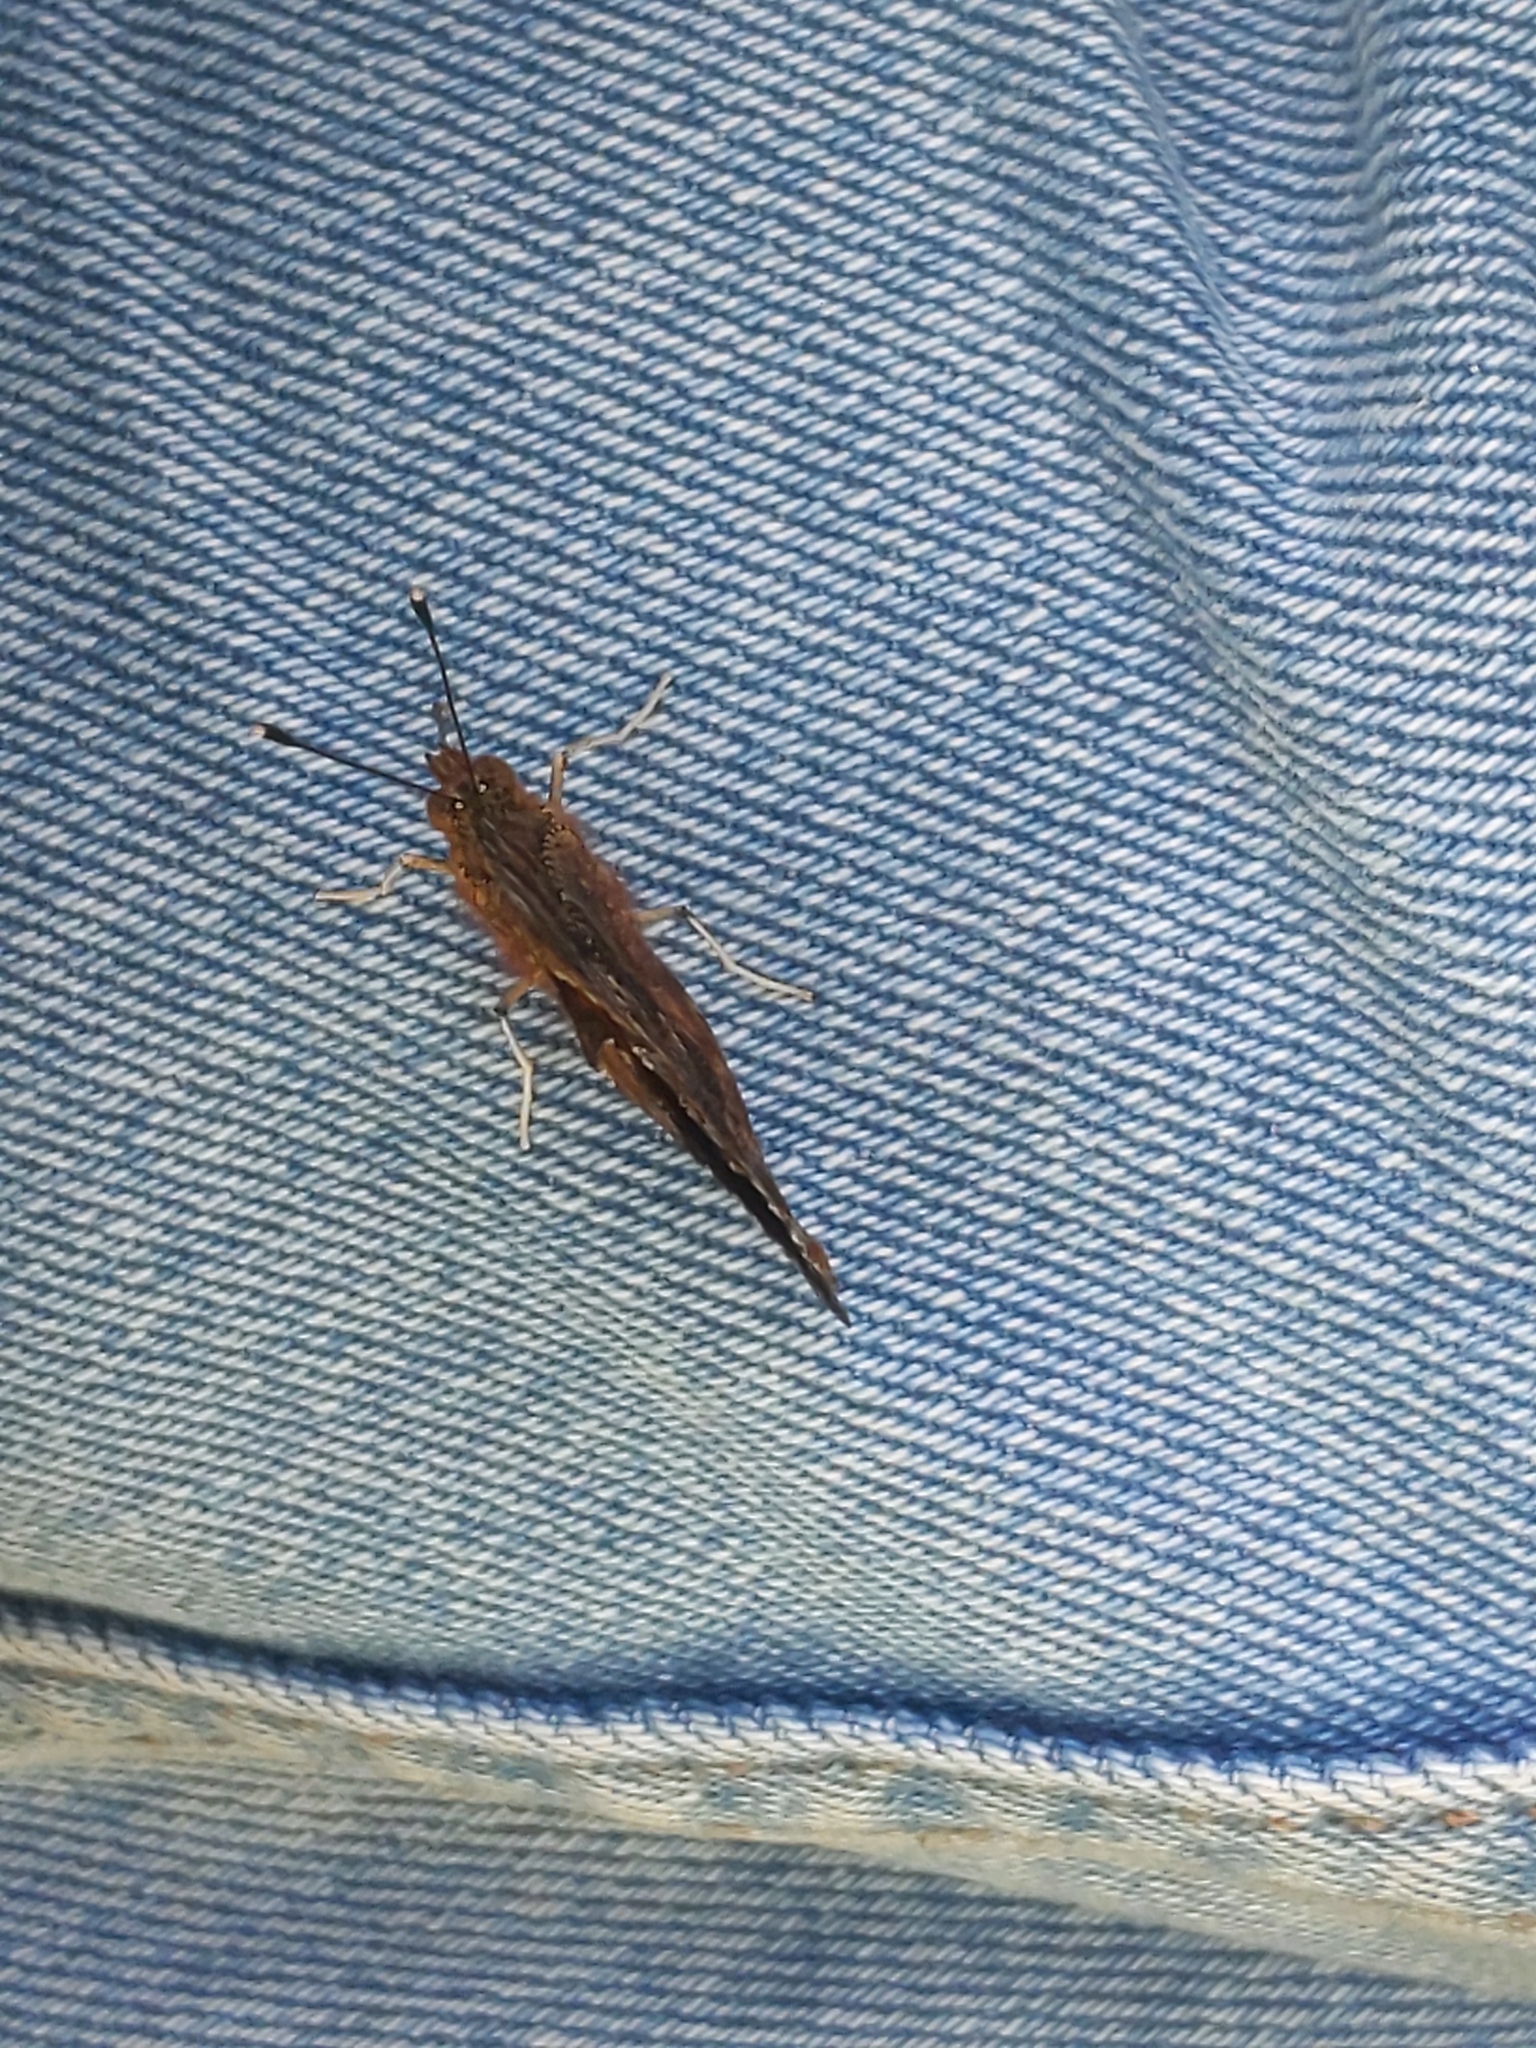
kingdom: Animalia
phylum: Arthropoda
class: Insecta
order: Lepidoptera
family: Nymphalidae
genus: Polygonia
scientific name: Polygonia comma
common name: Eastern comma
